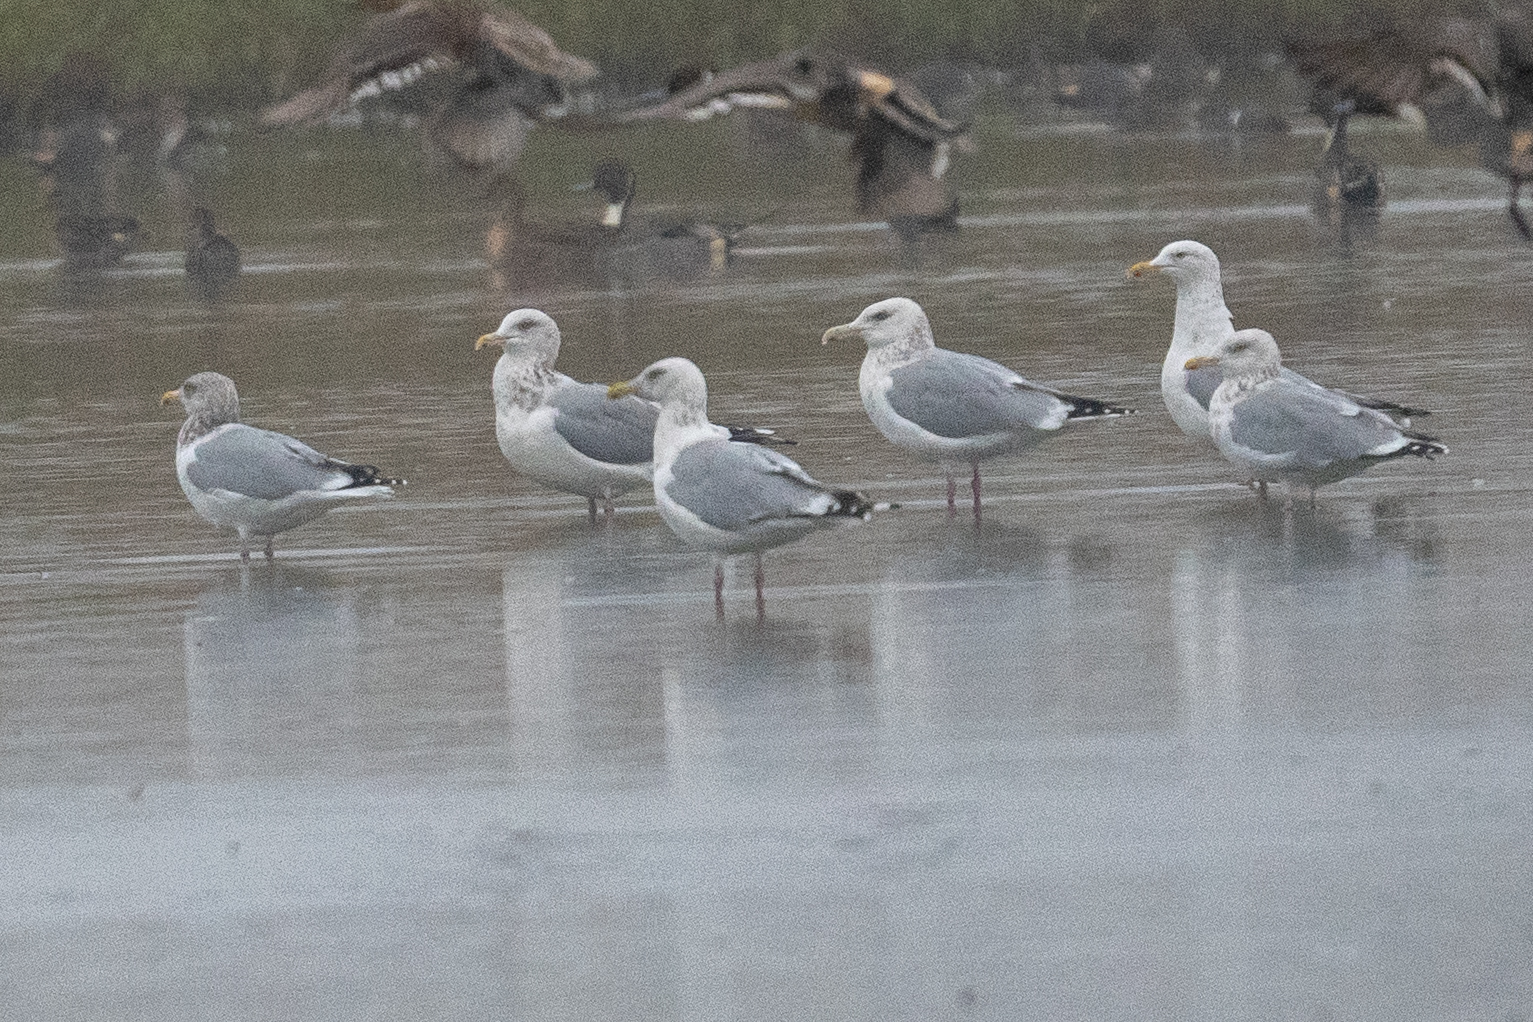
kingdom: Animalia
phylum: Chordata
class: Aves
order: Charadriiformes
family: Laridae
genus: Larus
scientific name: Larus argentatus
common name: Herring gull
